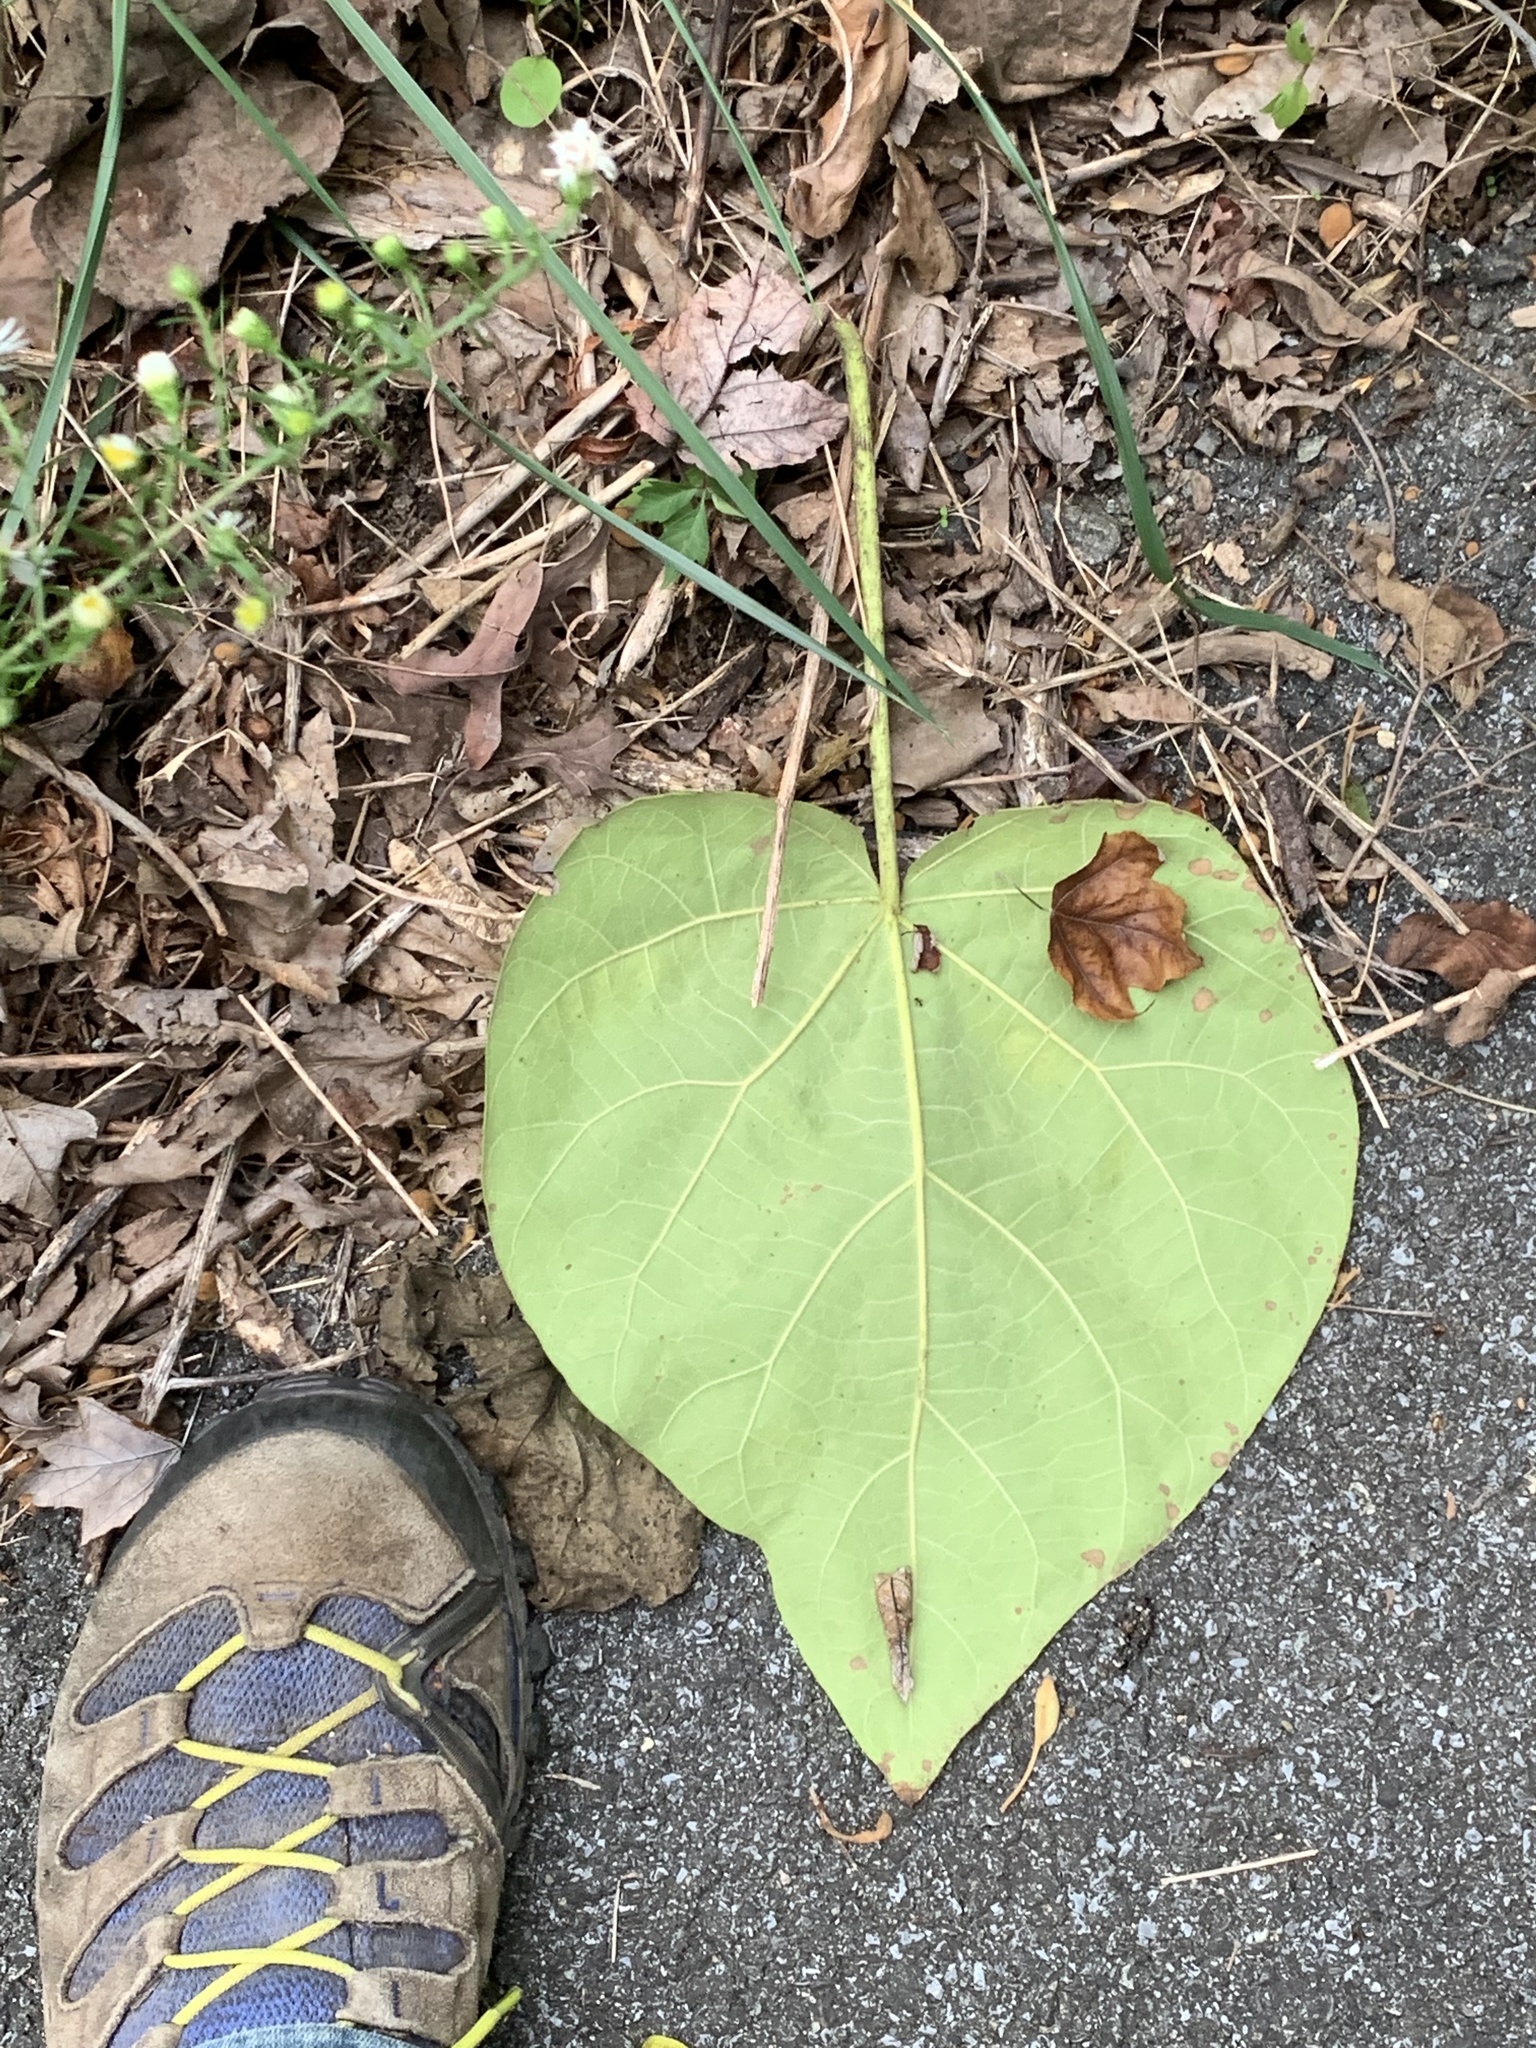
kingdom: Plantae
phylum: Tracheophyta
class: Magnoliopsida
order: Lamiales
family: Paulowniaceae
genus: Paulownia
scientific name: Paulownia tomentosa
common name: Foxglove-tree
